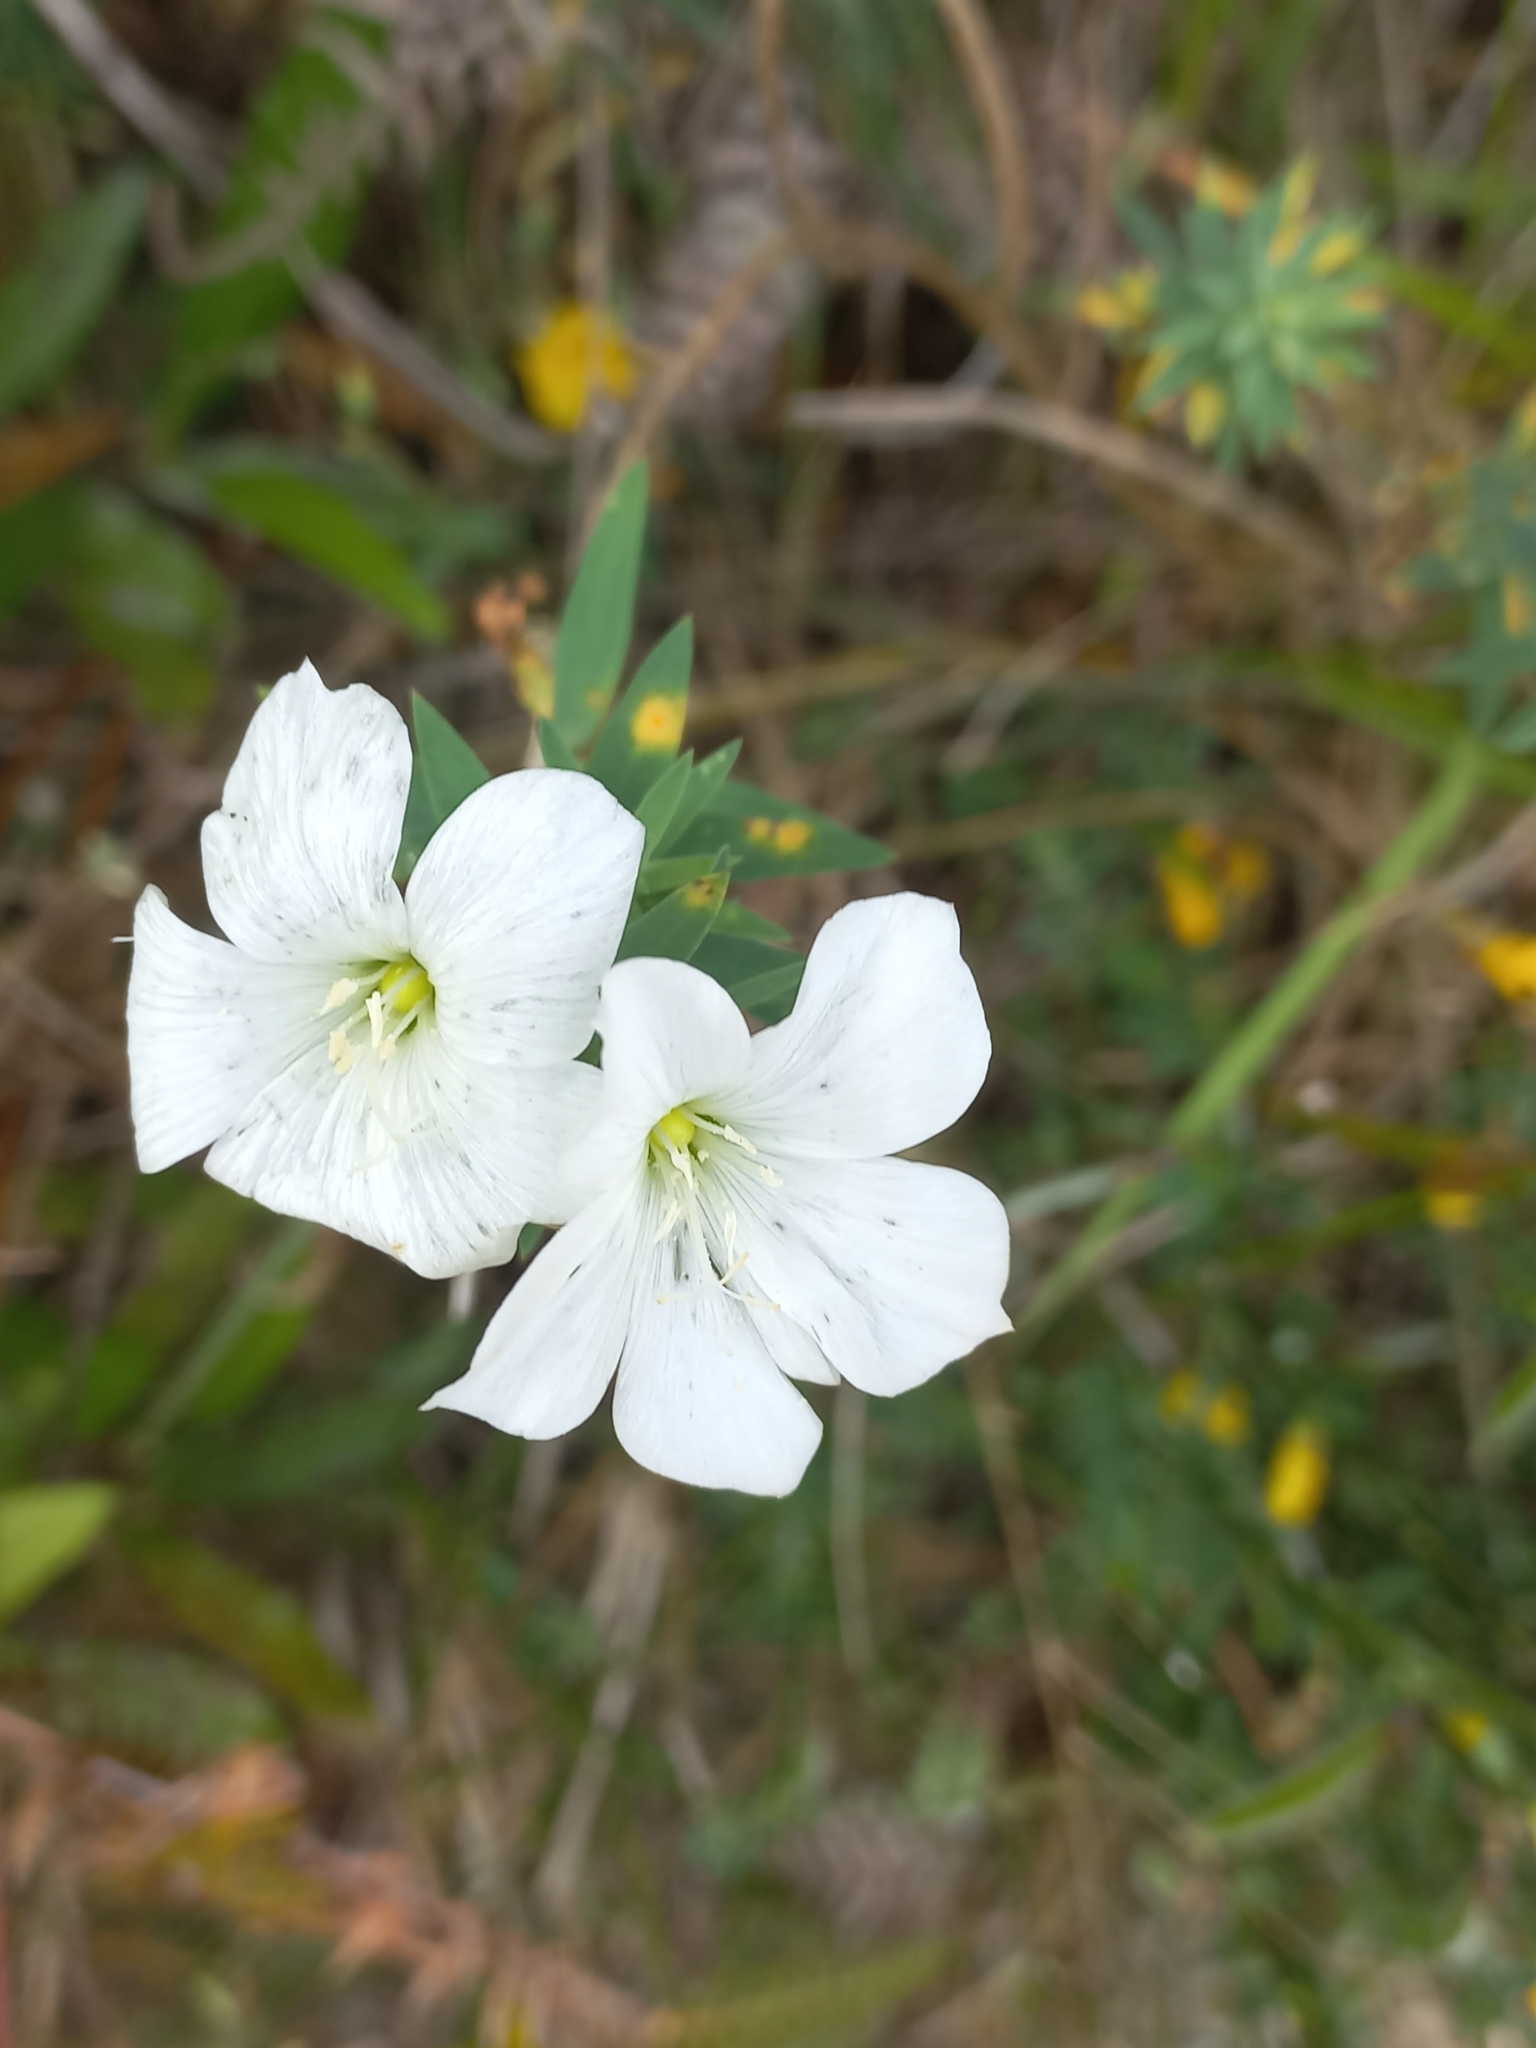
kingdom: Plantae
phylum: Tracheophyta
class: Magnoliopsida
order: Malpighiales
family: Linaceae
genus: Linum
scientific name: Linum monogynum
